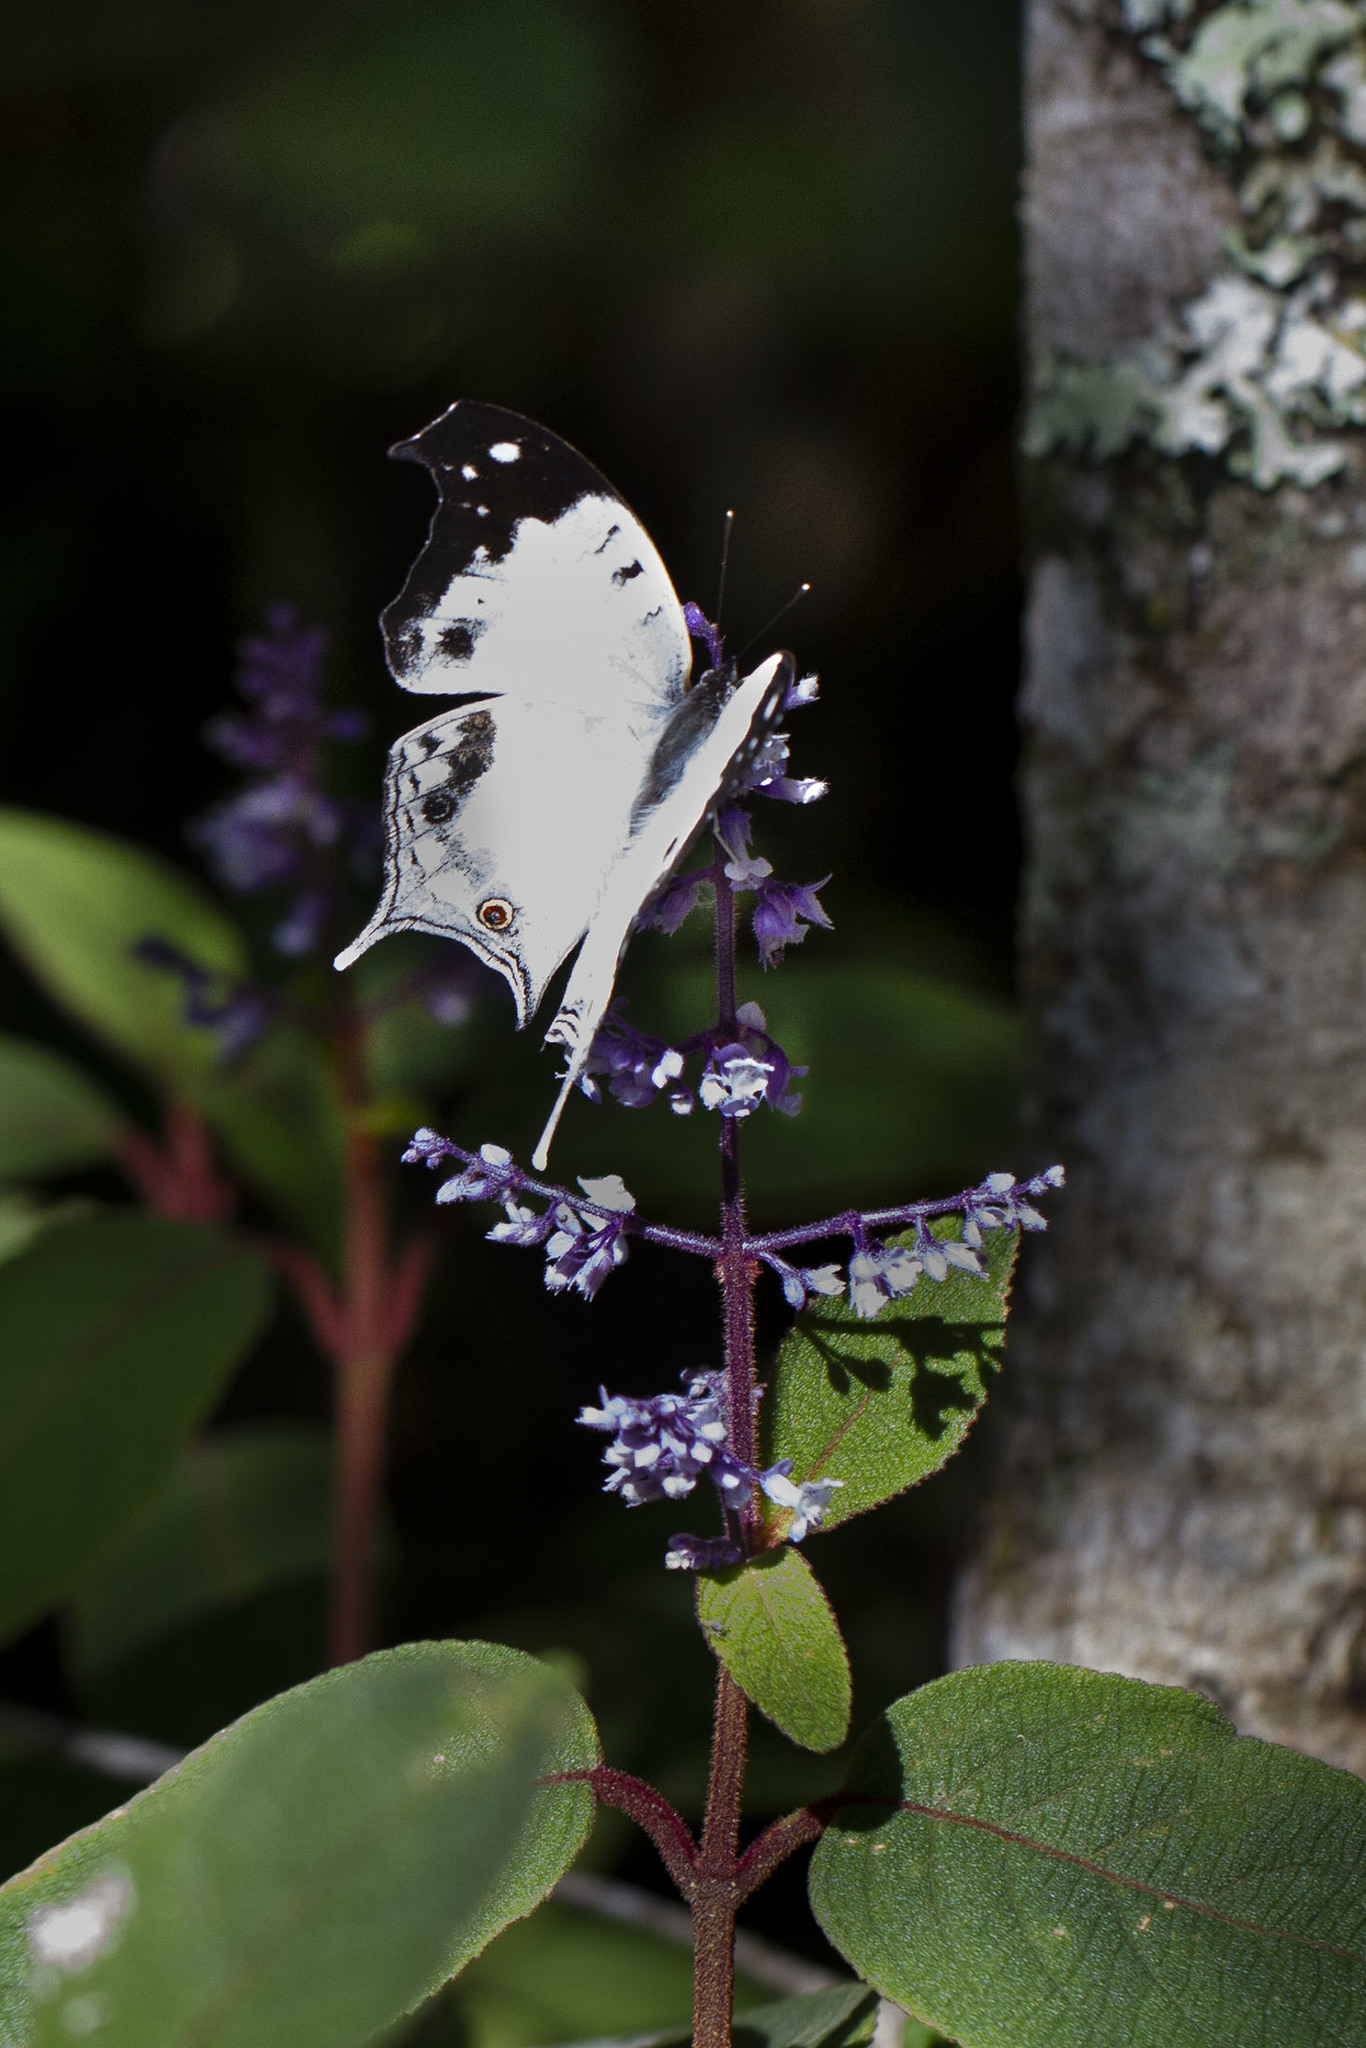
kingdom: Animalia
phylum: Arthropoda
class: Insecta
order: Lepidoptera
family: Nymphalidae
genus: Salamis
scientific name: Salamis Protogoniomorpha duprei
